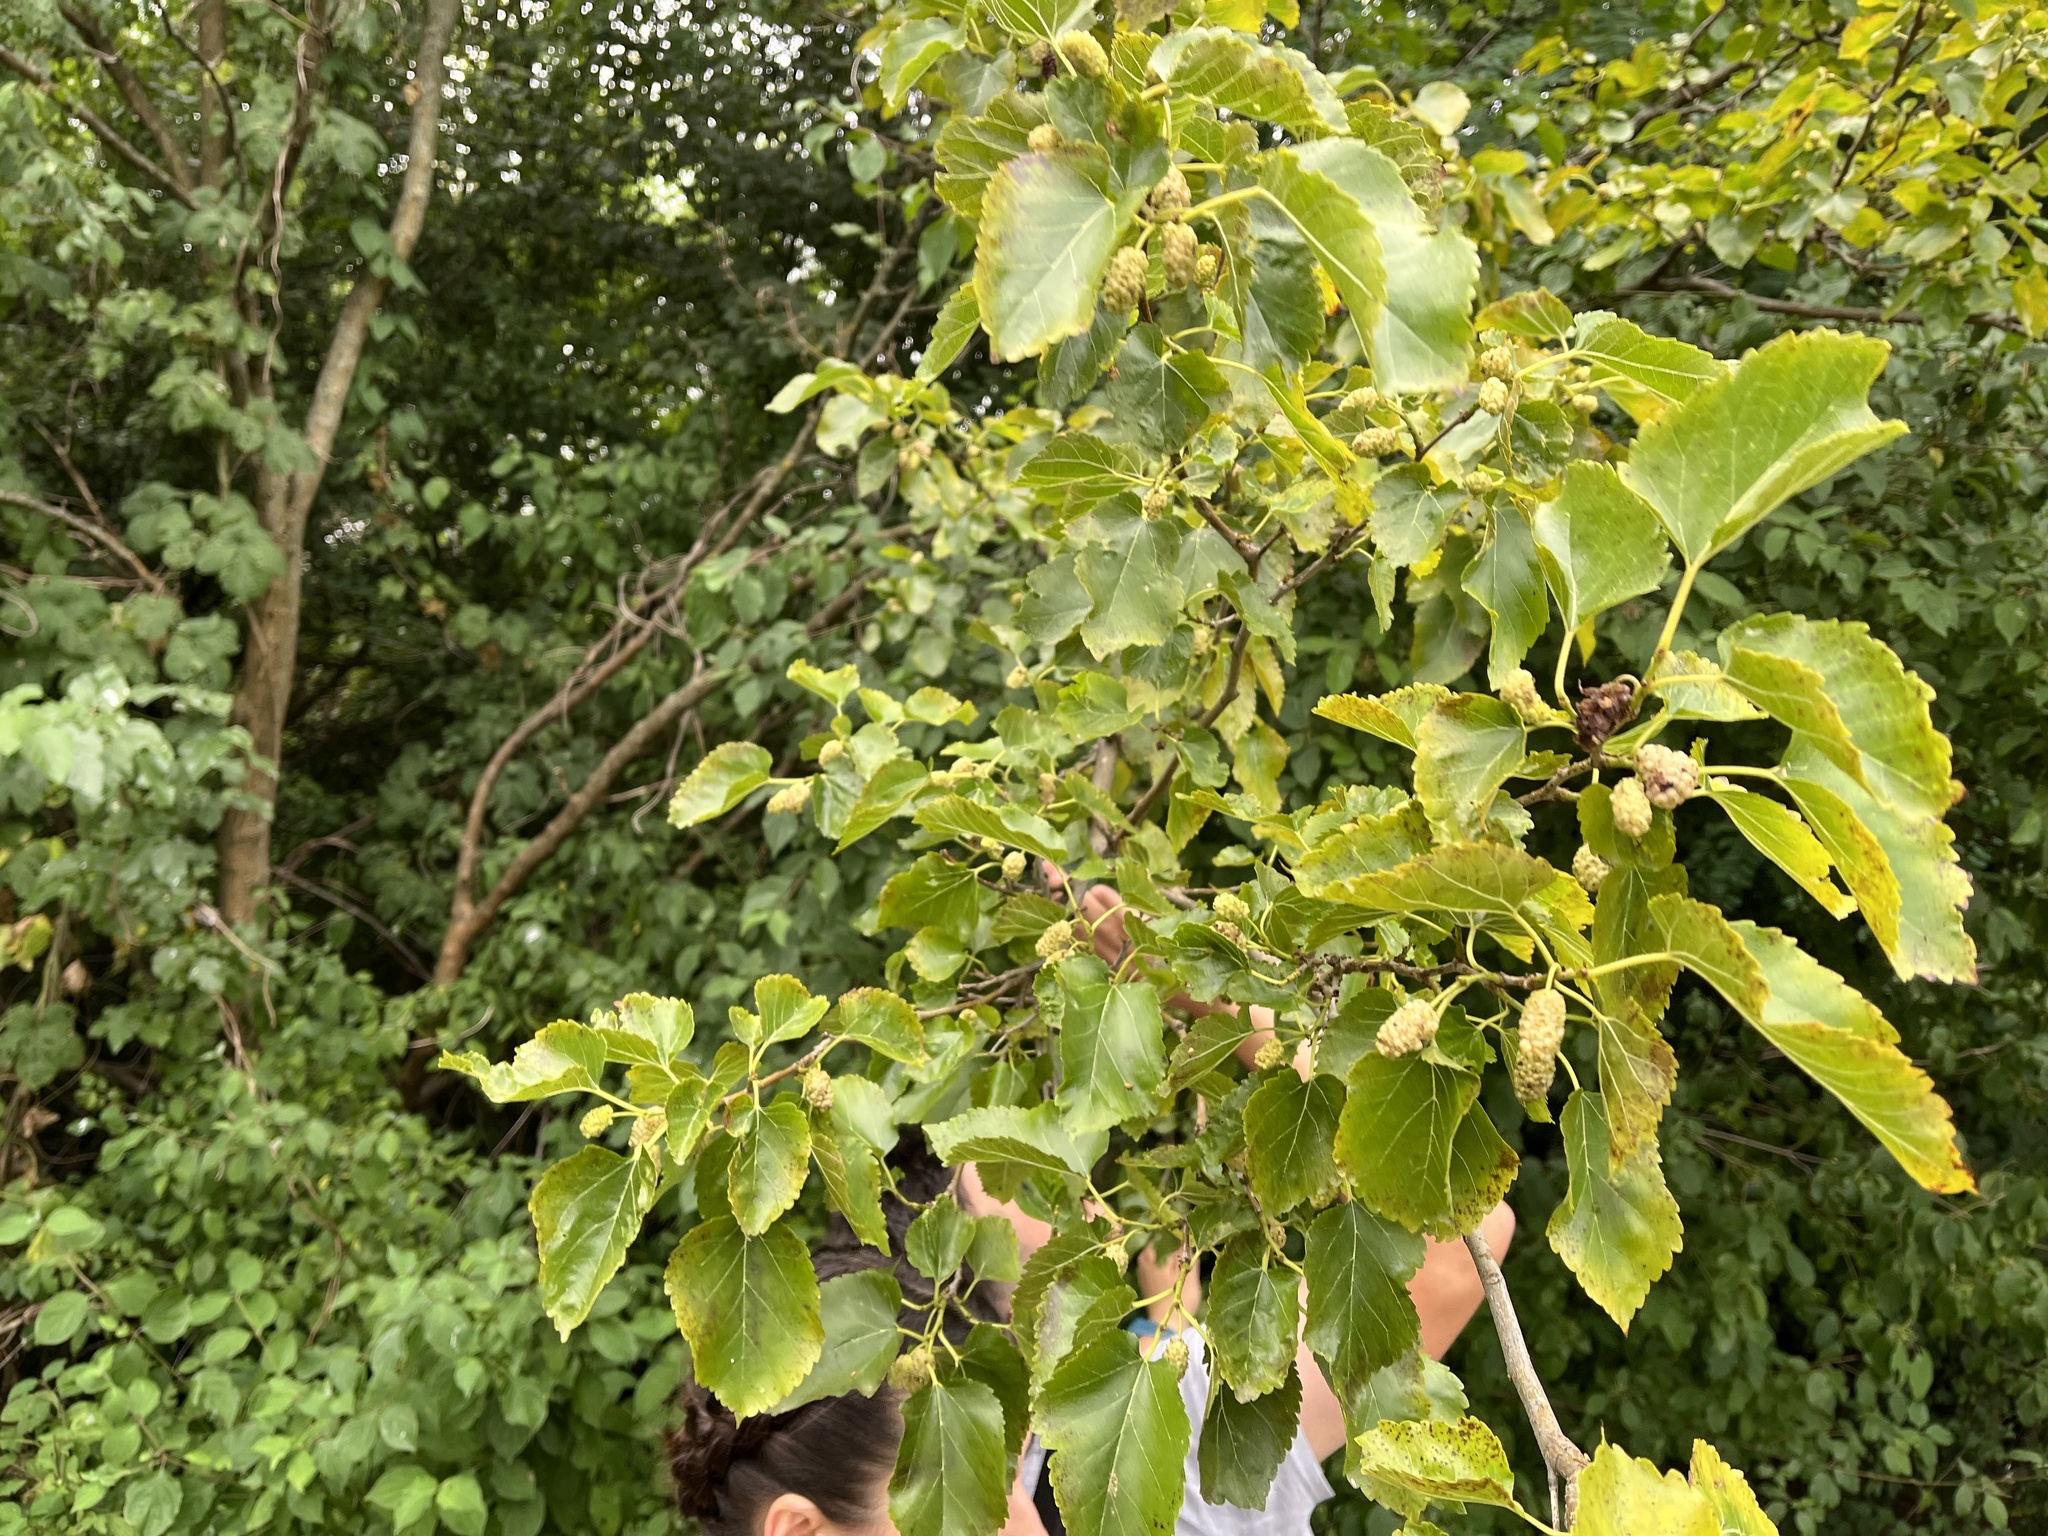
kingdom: Plantae
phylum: Tracheophyta
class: Magnoliopsida
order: Rosales
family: Moraceae
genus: Morus
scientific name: Morus alba
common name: White mulberry
